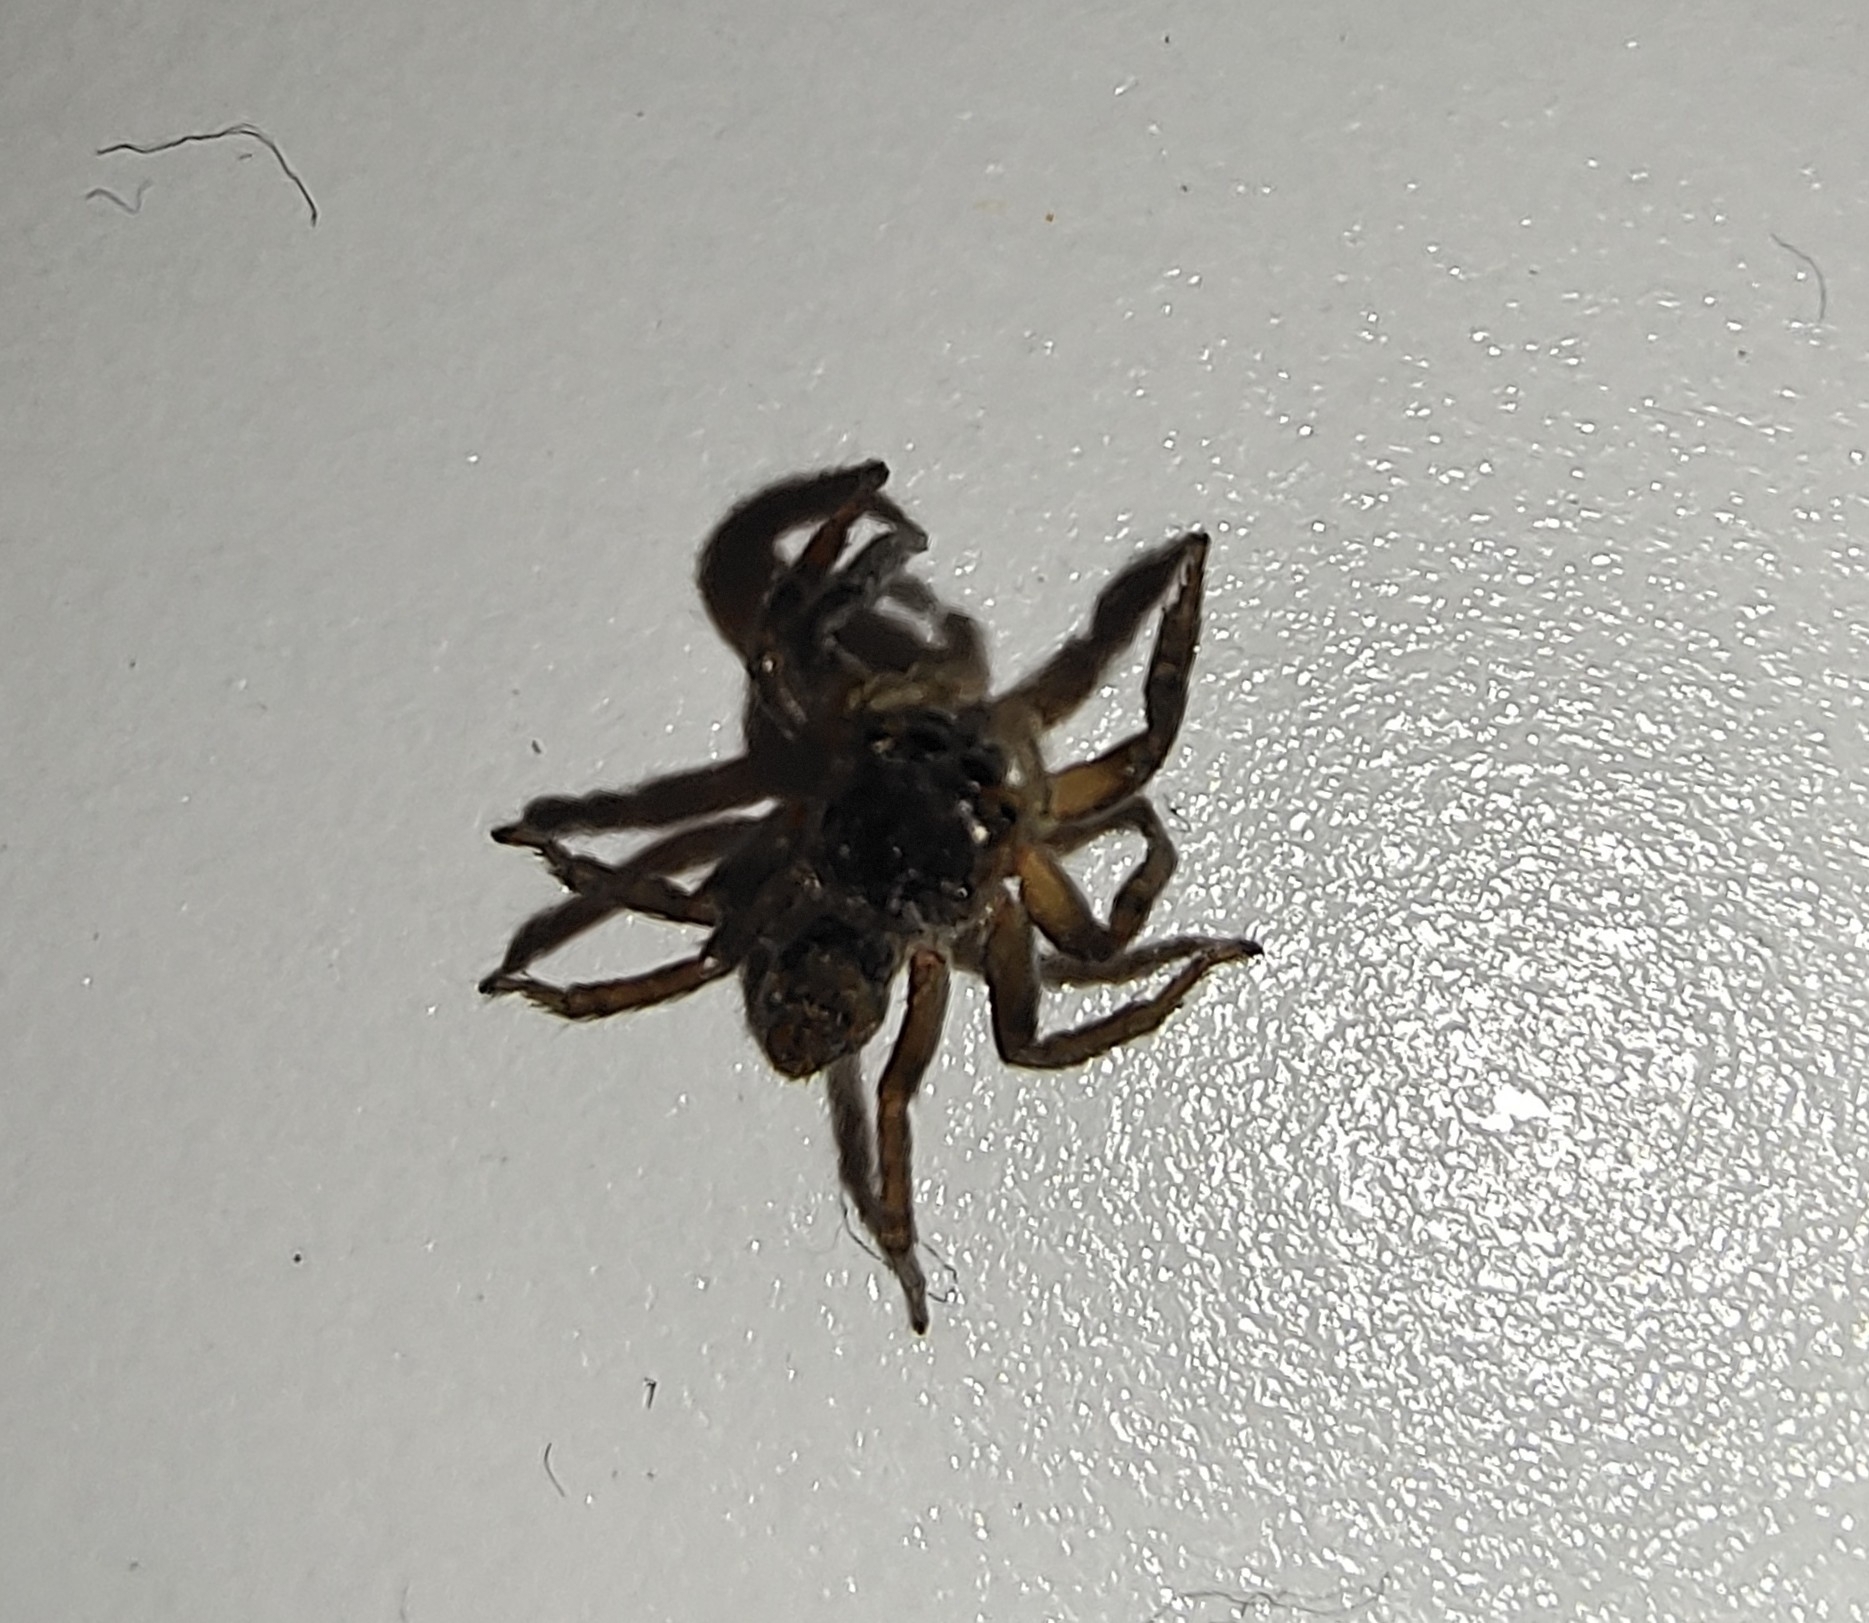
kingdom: Animalia
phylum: Arthropoda
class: Arachnida
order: Araneae
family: Salticidae
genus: Hasarius
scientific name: Hasarius adansoni
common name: Jumping spider
